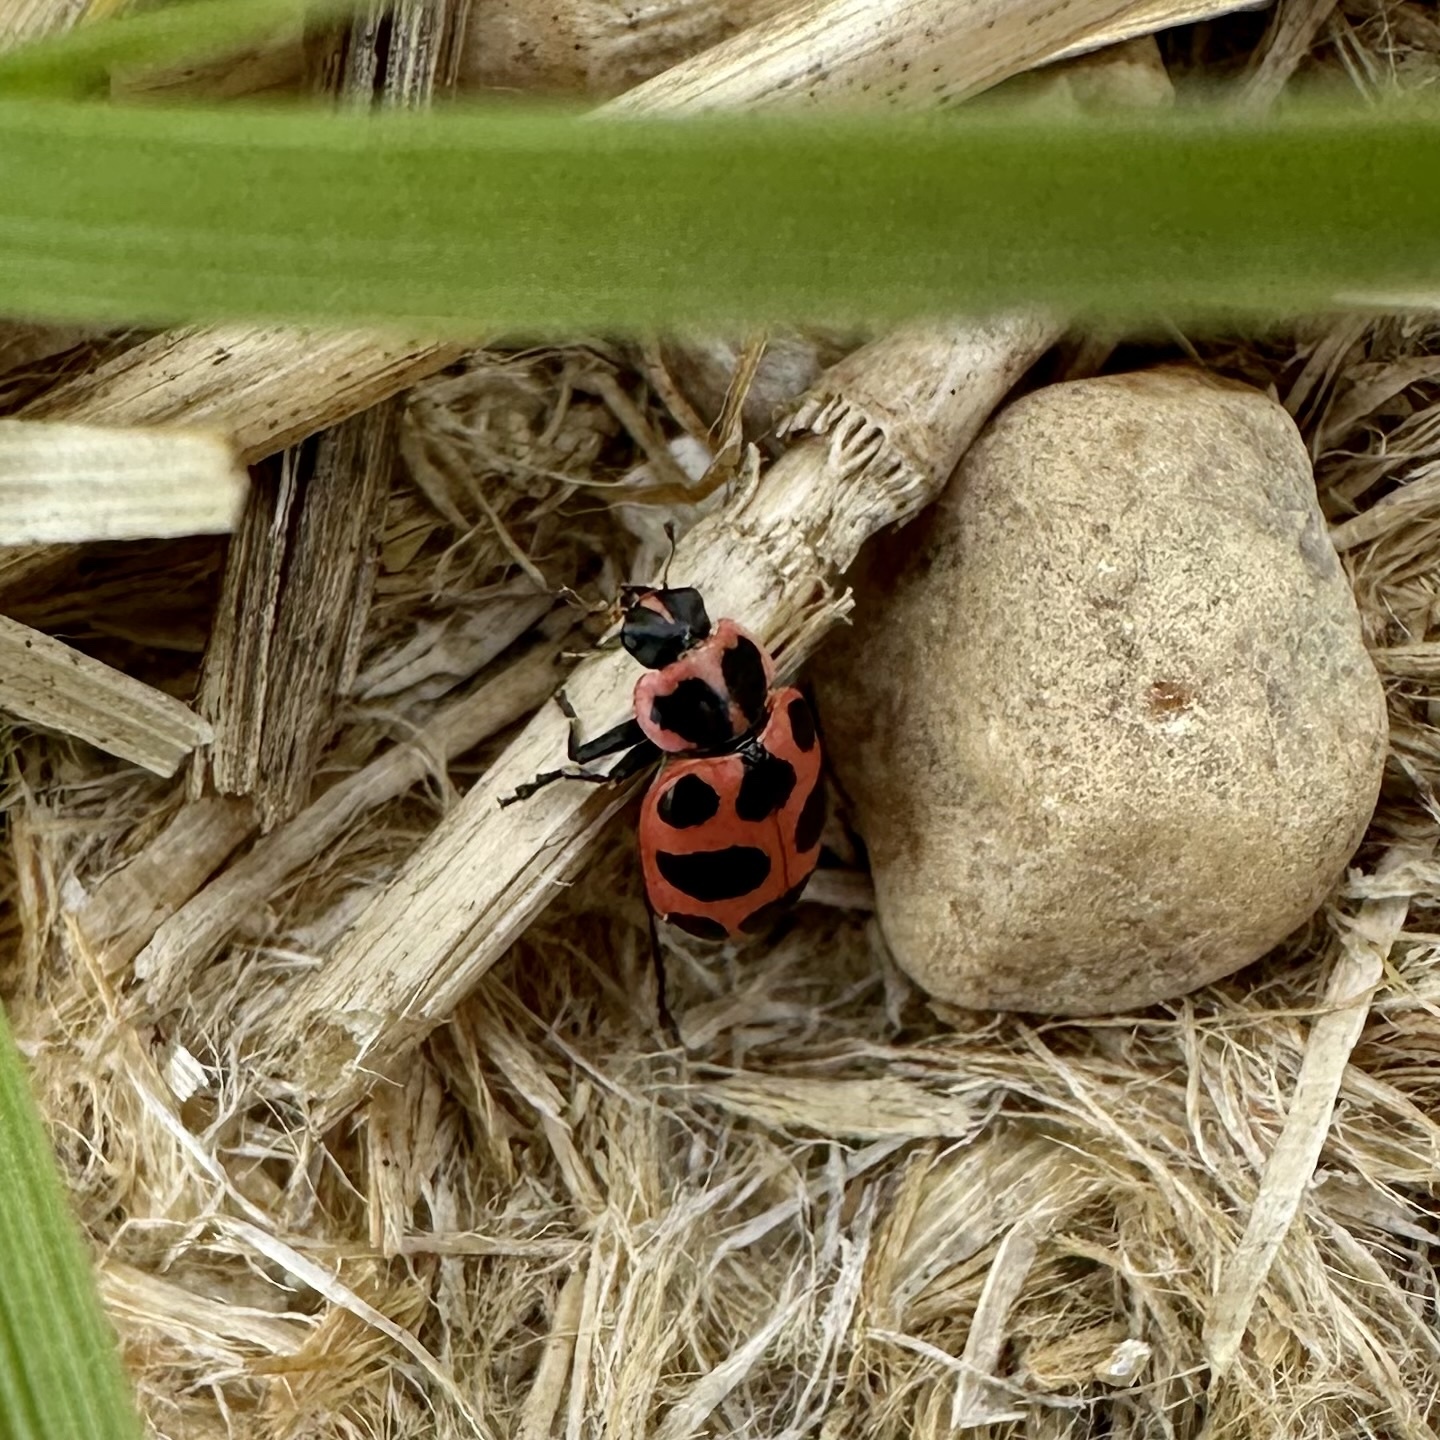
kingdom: Animalia
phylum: Arthropoda
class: Insecta
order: Coleoptera
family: Coccinellidae
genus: Coleomegilla
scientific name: Coleomegilla maculata
